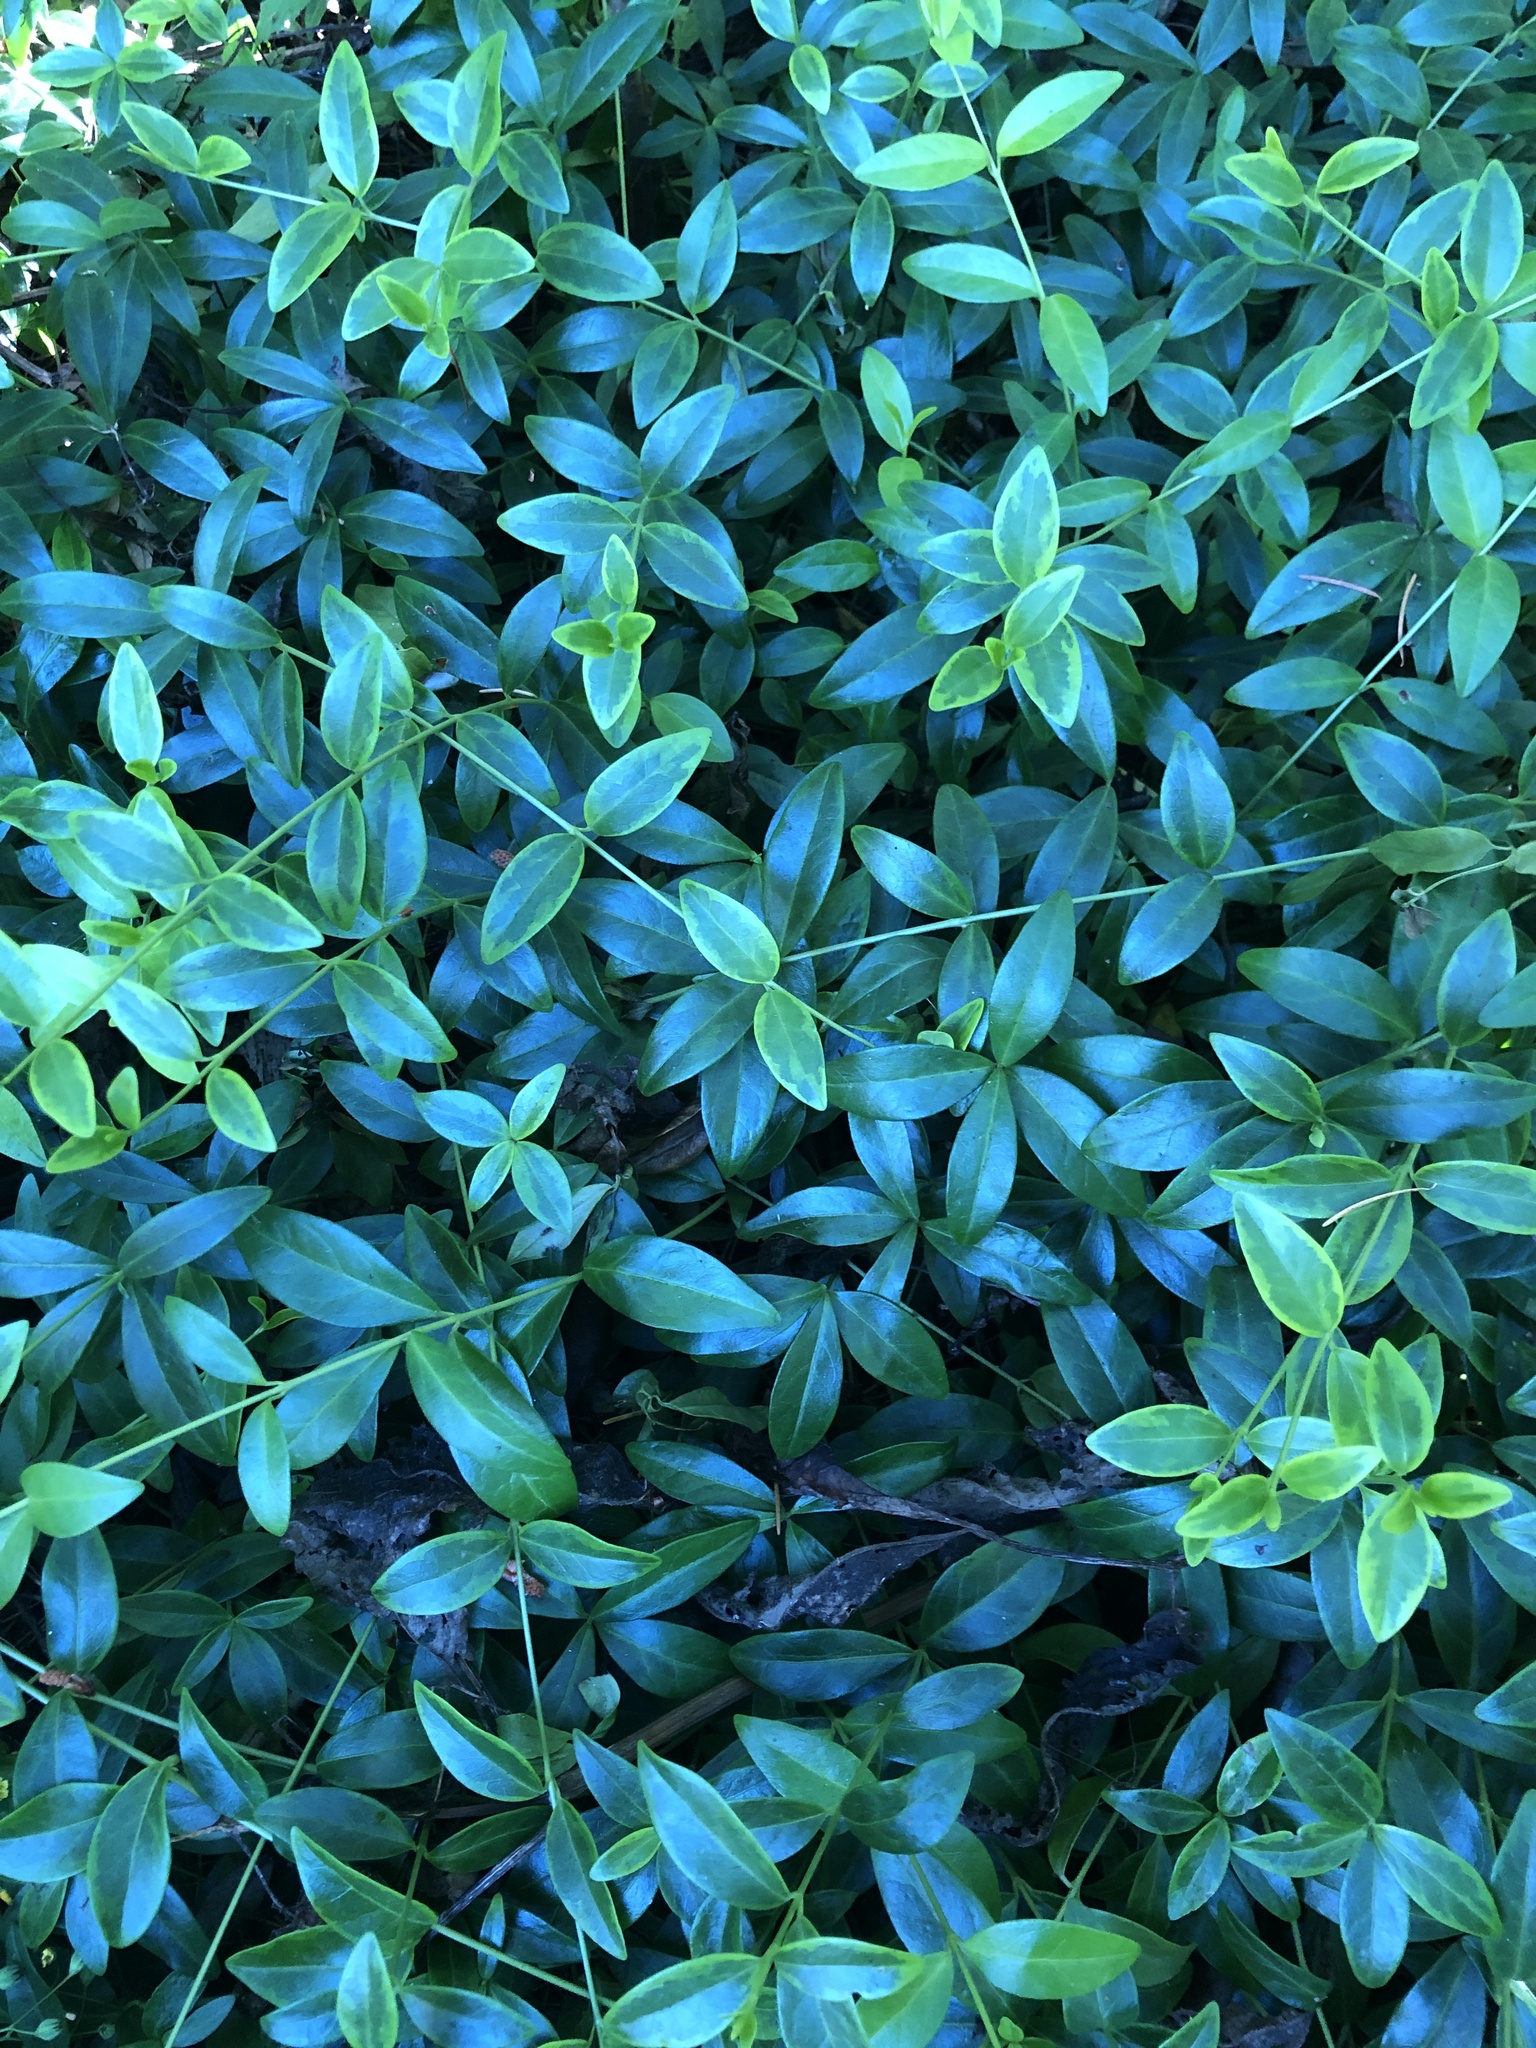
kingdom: Plantae
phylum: Tracheophyta
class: Magnoliopsida
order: Gentianales
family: Apocynaceae
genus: Vinca
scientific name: Vinca minor
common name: Lesser periwinkle
